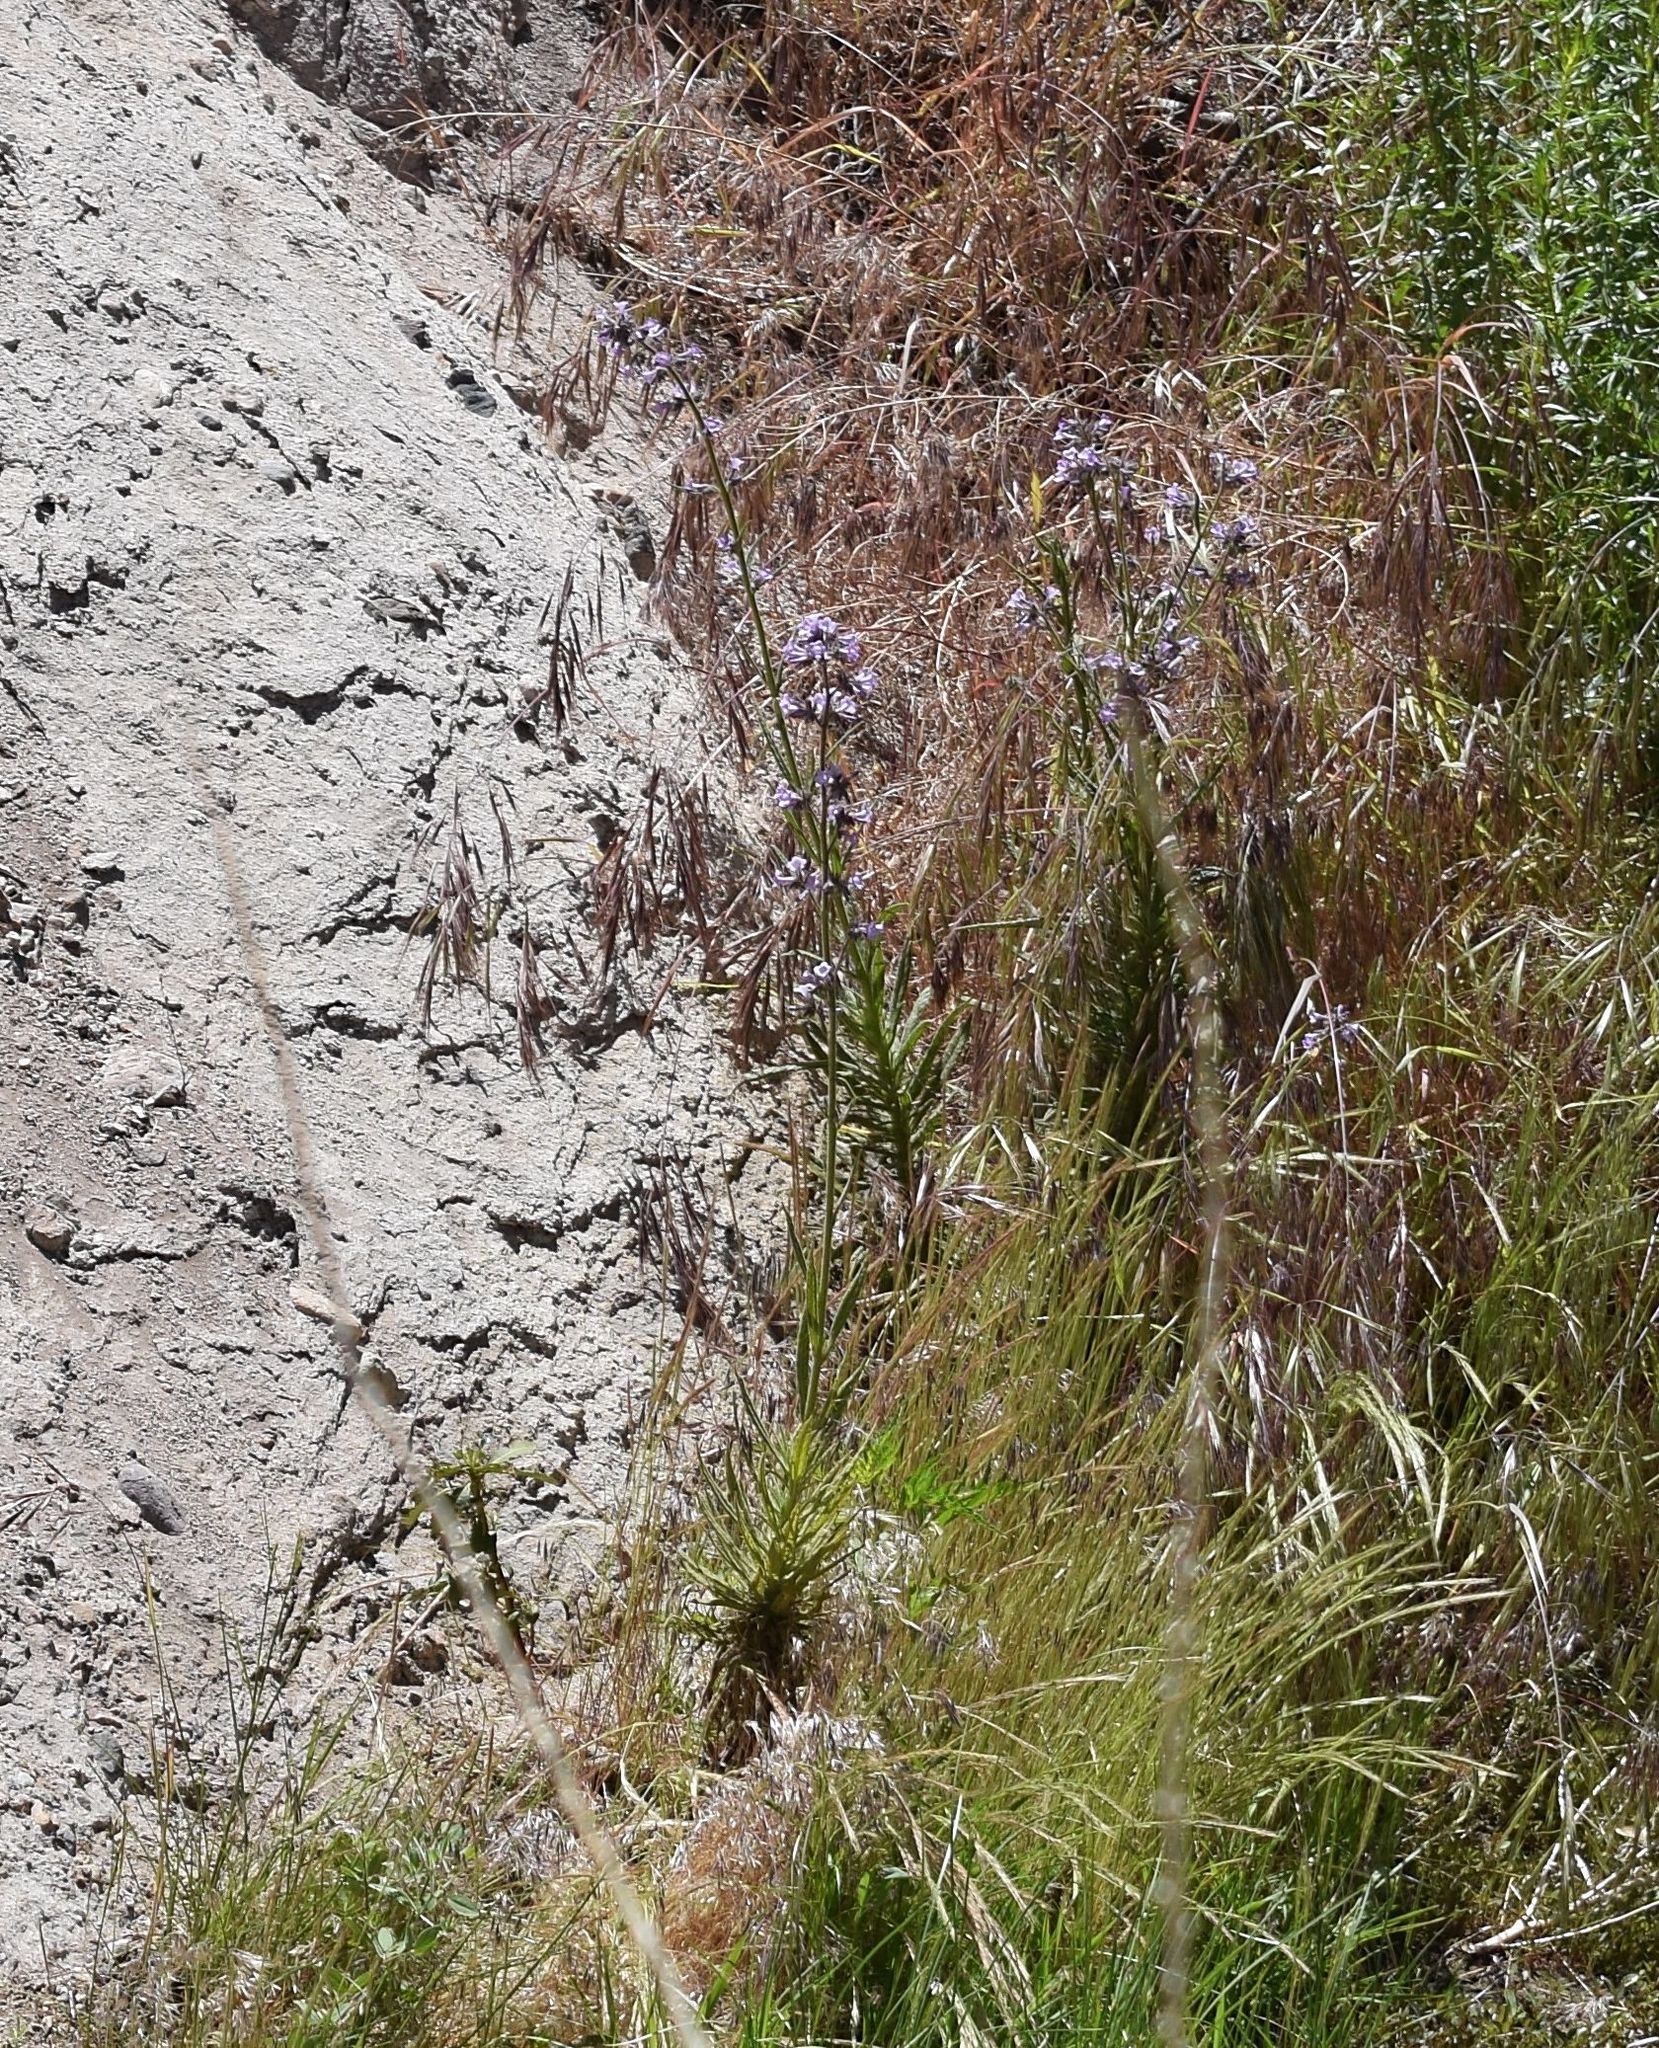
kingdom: Plantae
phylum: Tracheophyta
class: Magnoliopsida
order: Boraginales
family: Namaceae
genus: Turricula
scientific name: Turricula parryi
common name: Poodle-dog-bush
